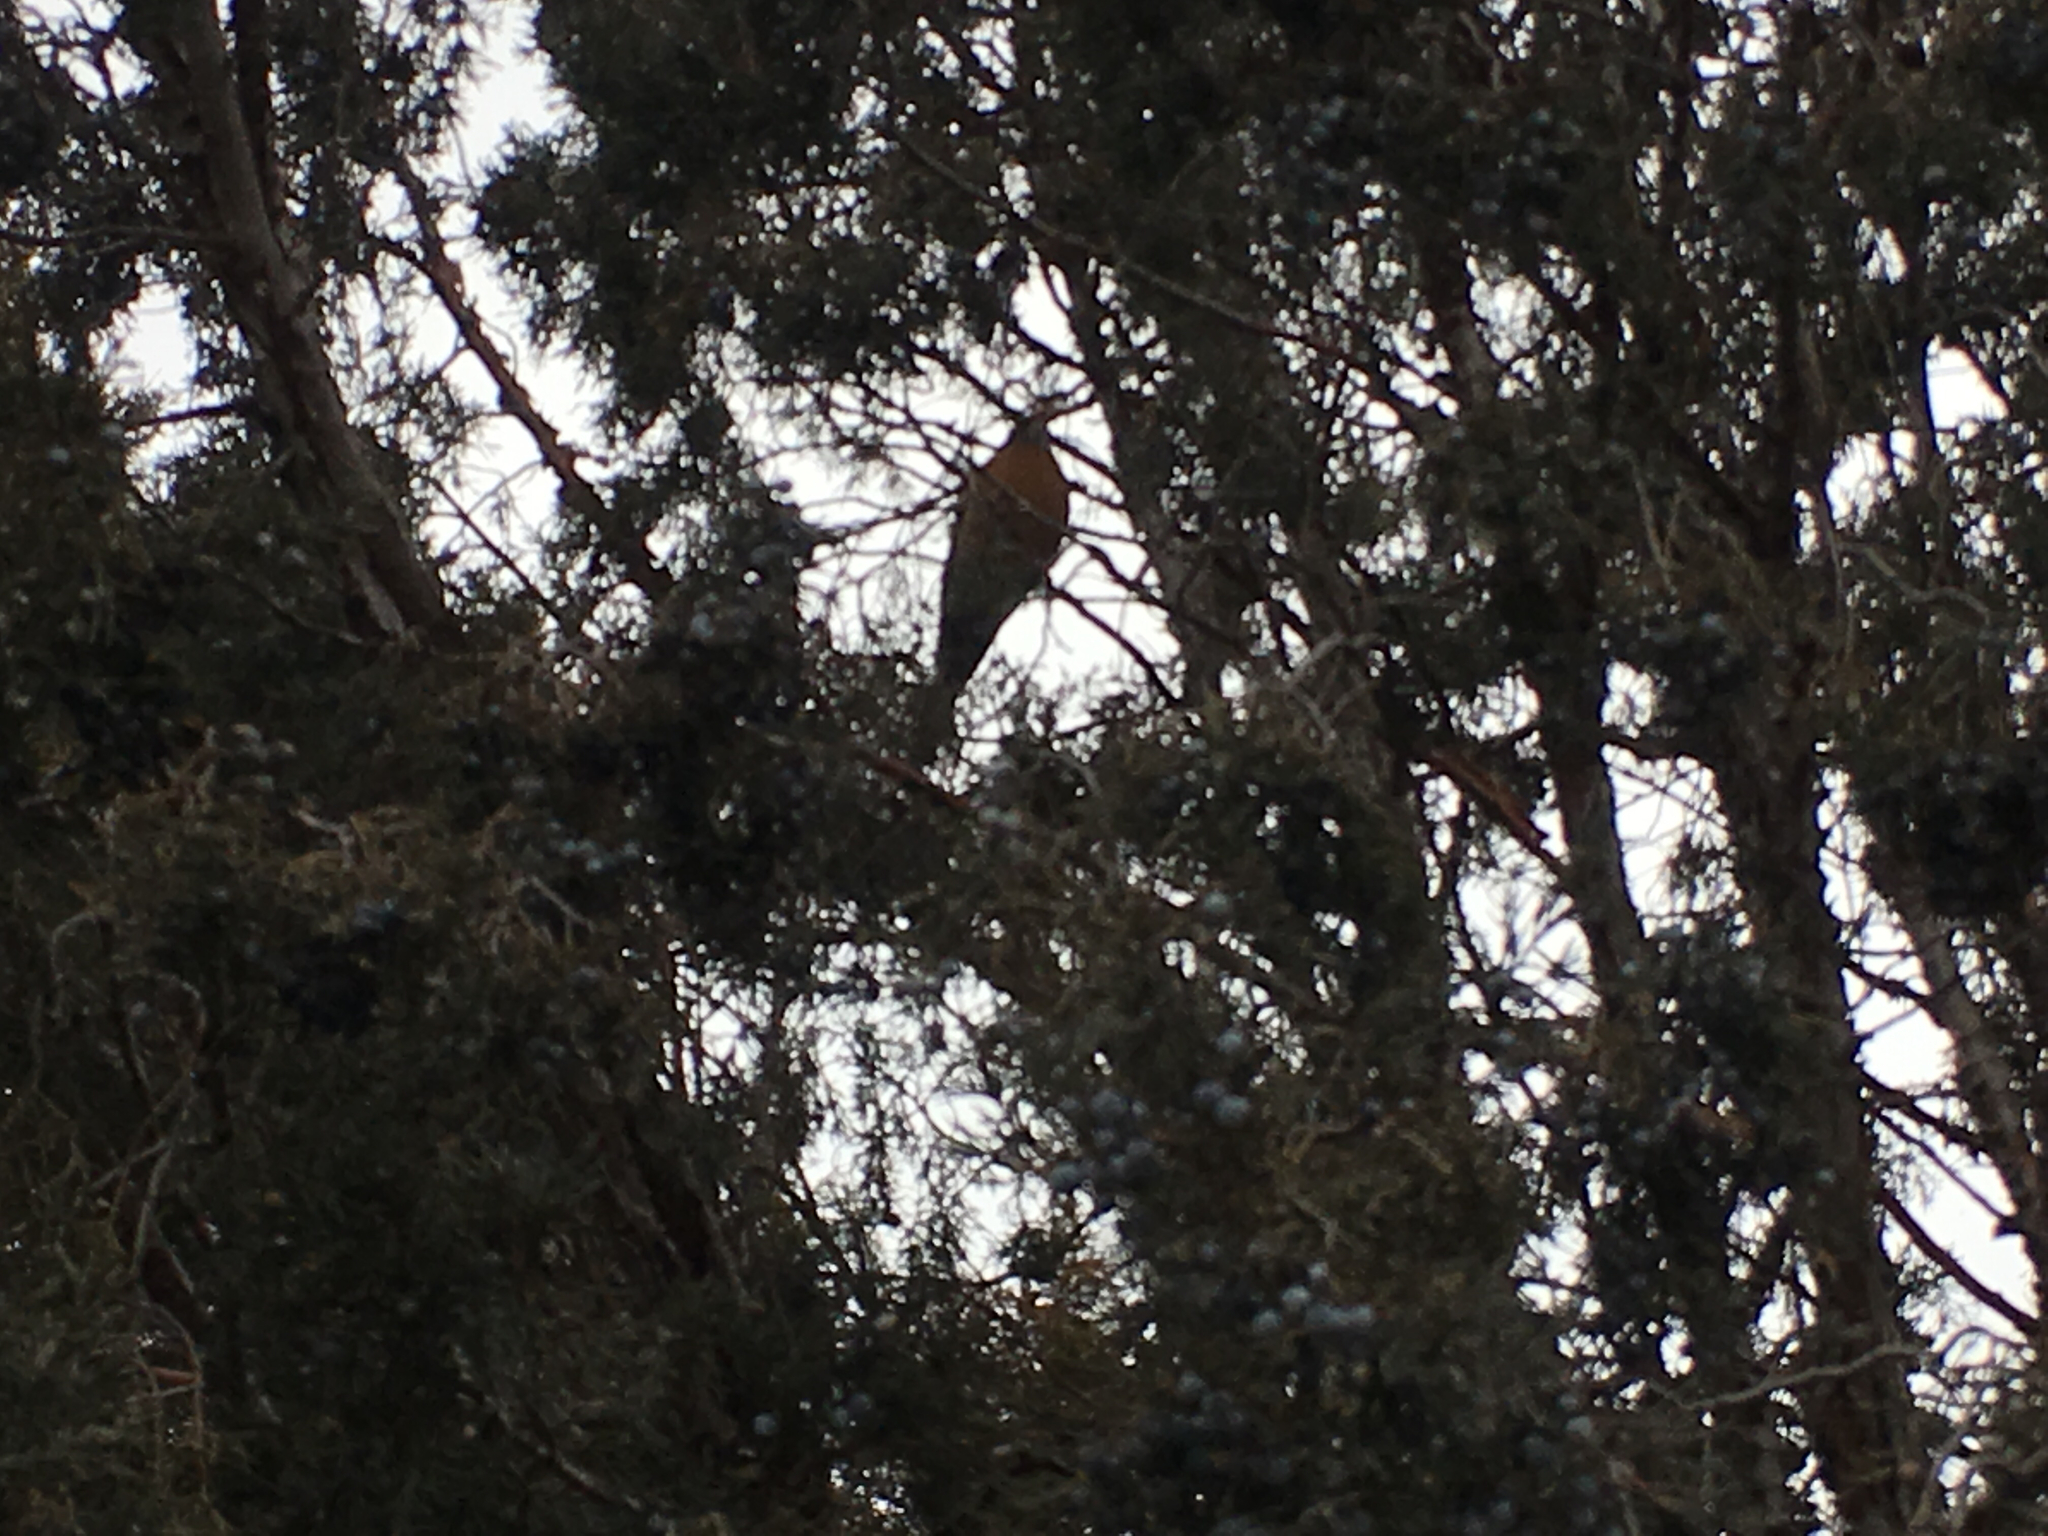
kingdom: Animalia
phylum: Chordata
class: Aves
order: Passeriformes
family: Turdidae
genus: Turdus
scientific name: Turdus migratorius
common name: American robin
